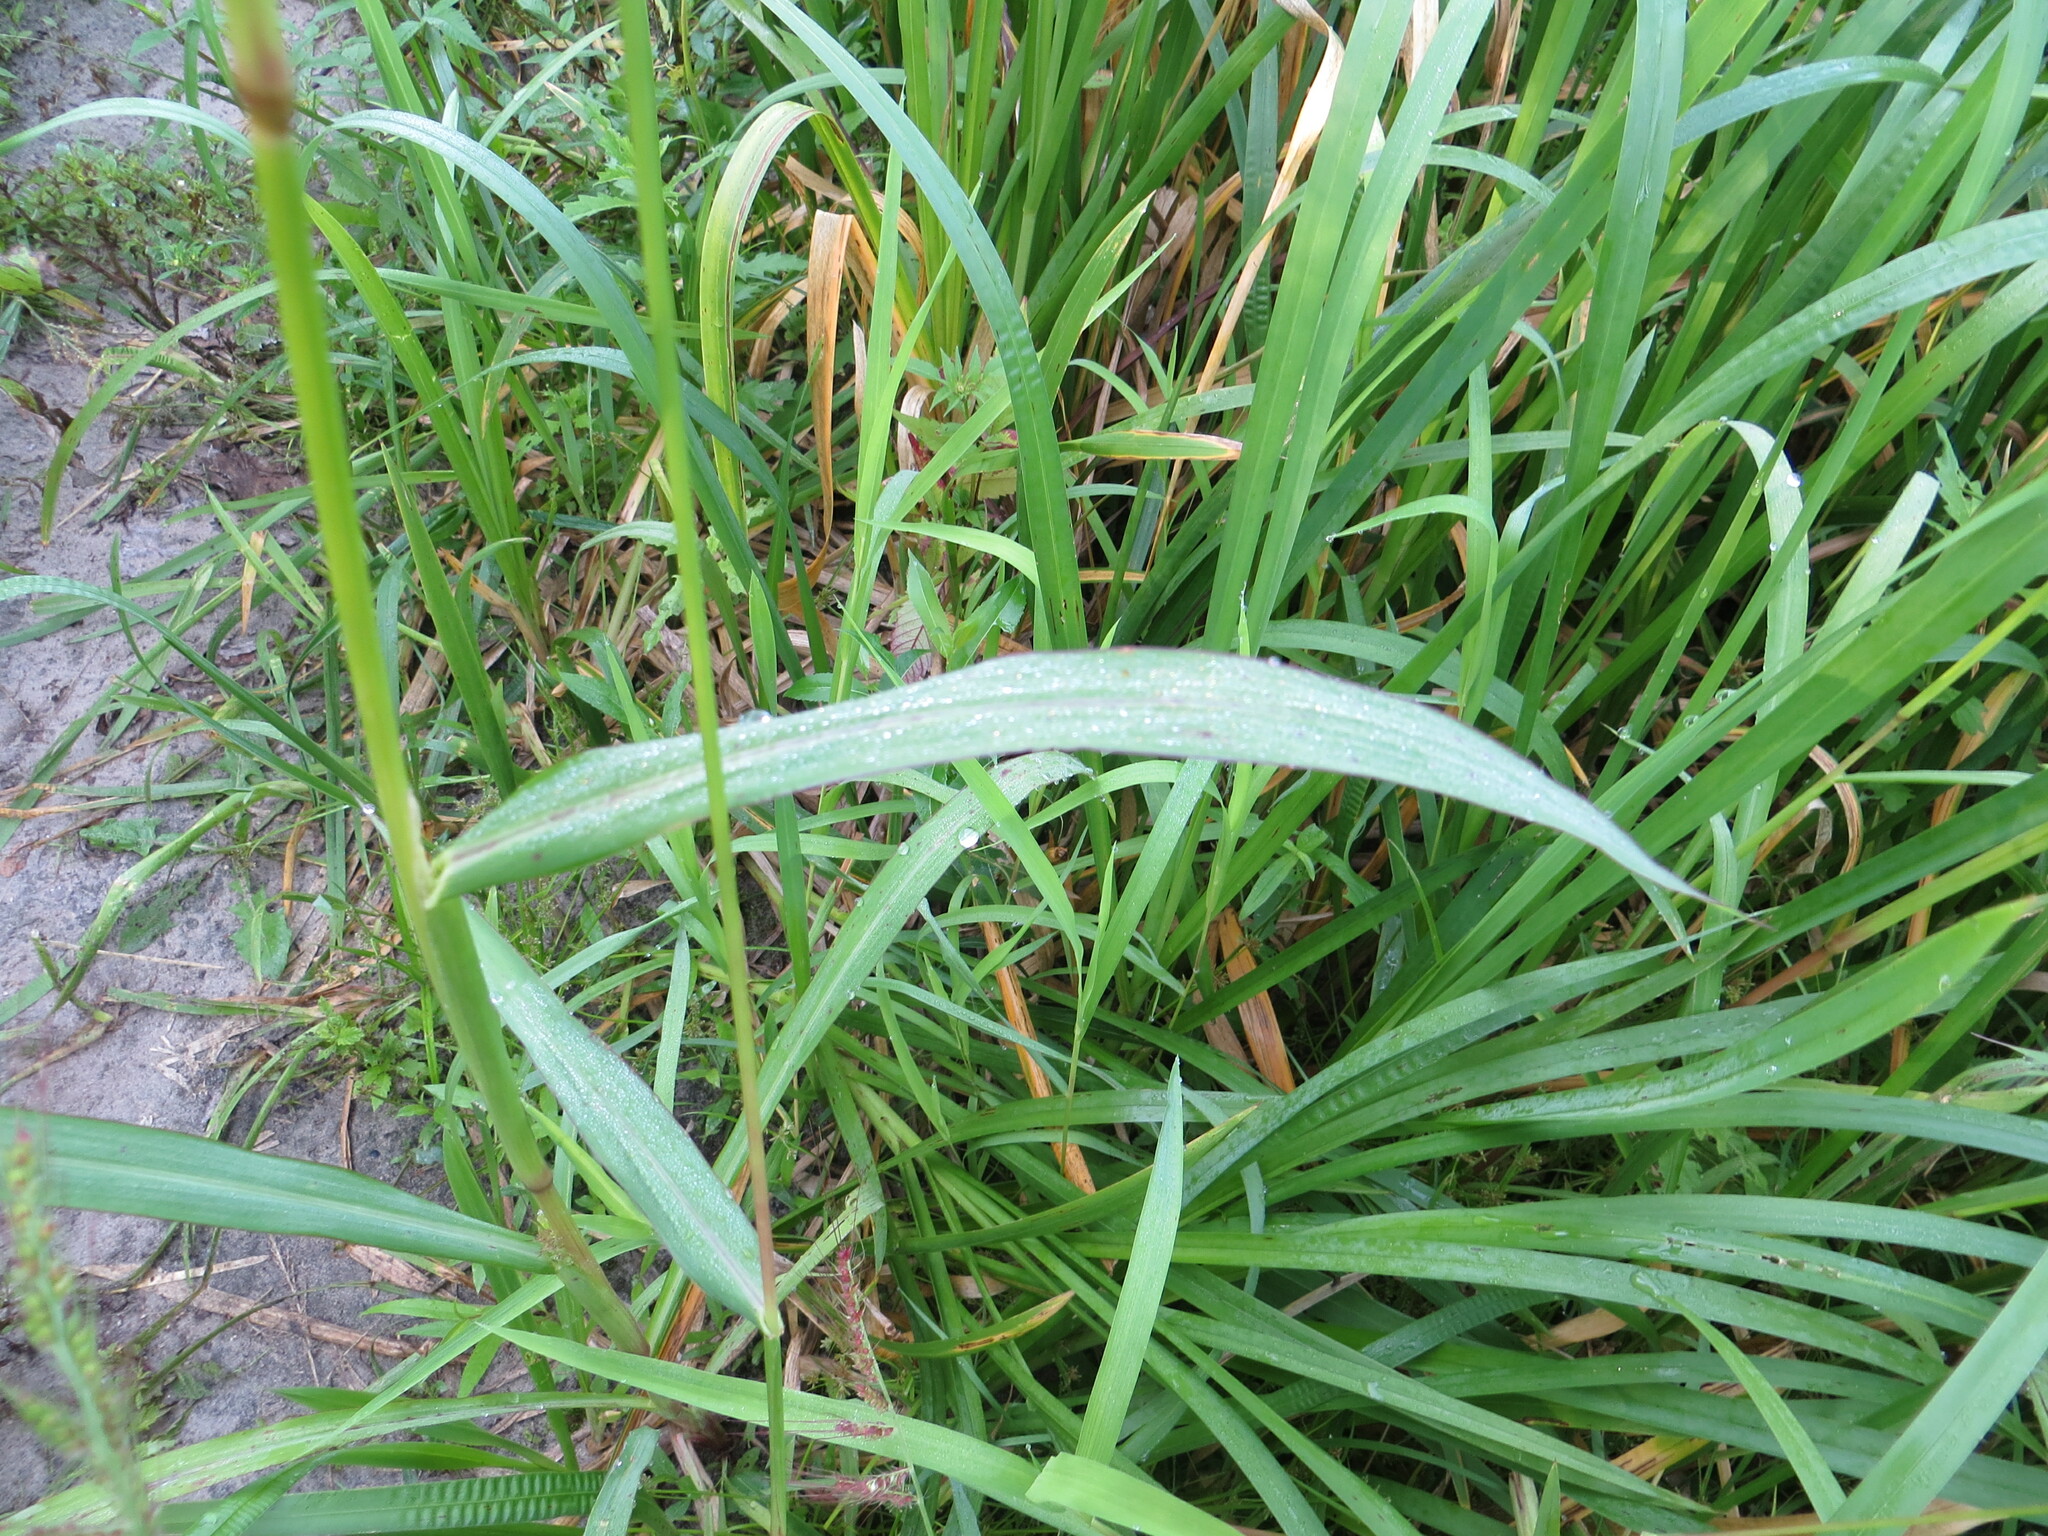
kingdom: Plantae
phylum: Tracheophyta
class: Liliopsida
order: Poales
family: Poaceae
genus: Echinochloa
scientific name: Echinochloa crus-galli
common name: Cockspur
